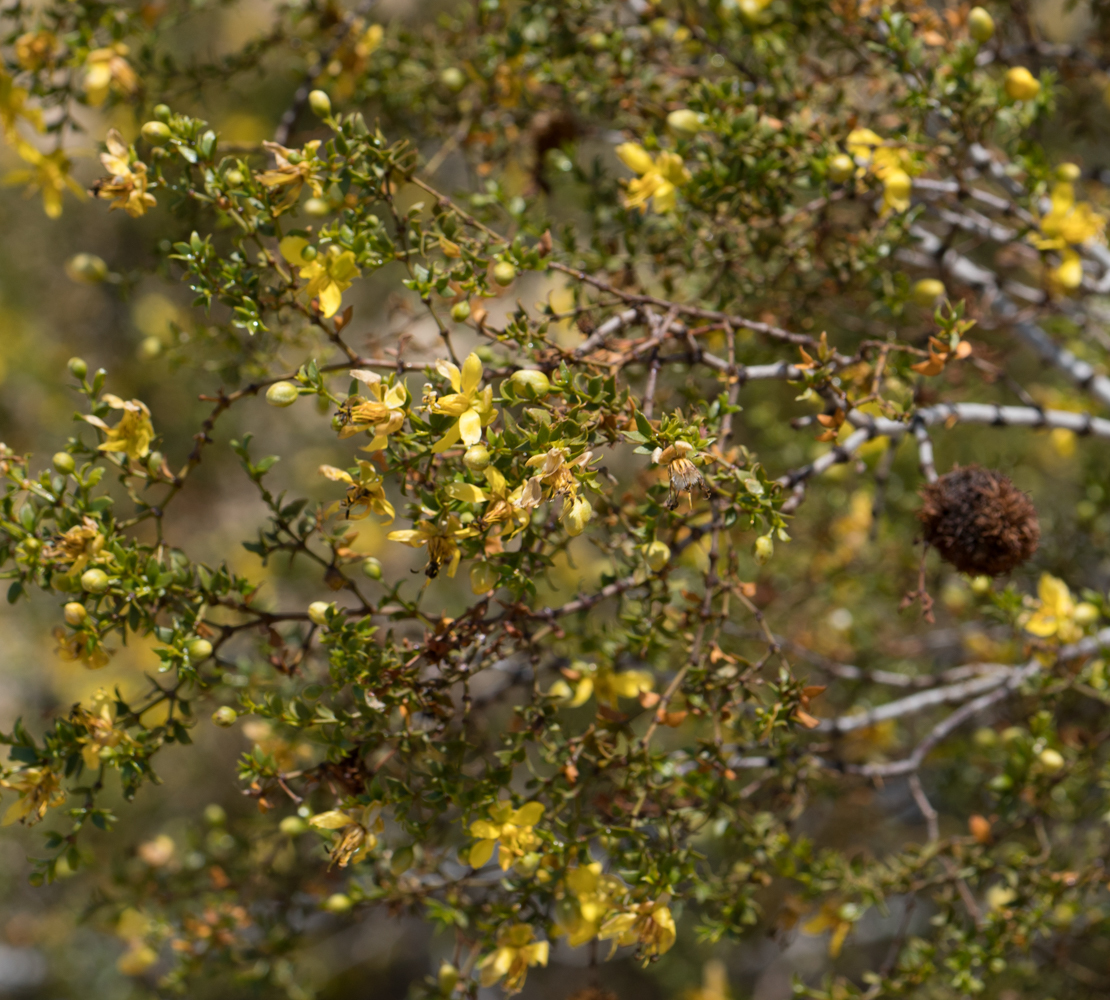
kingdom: Plantae
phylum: Tracheophyta
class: Magnoliopsida
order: Zygophyllales
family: Zygophyllaceae
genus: Larrea
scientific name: Larrea tridentata
